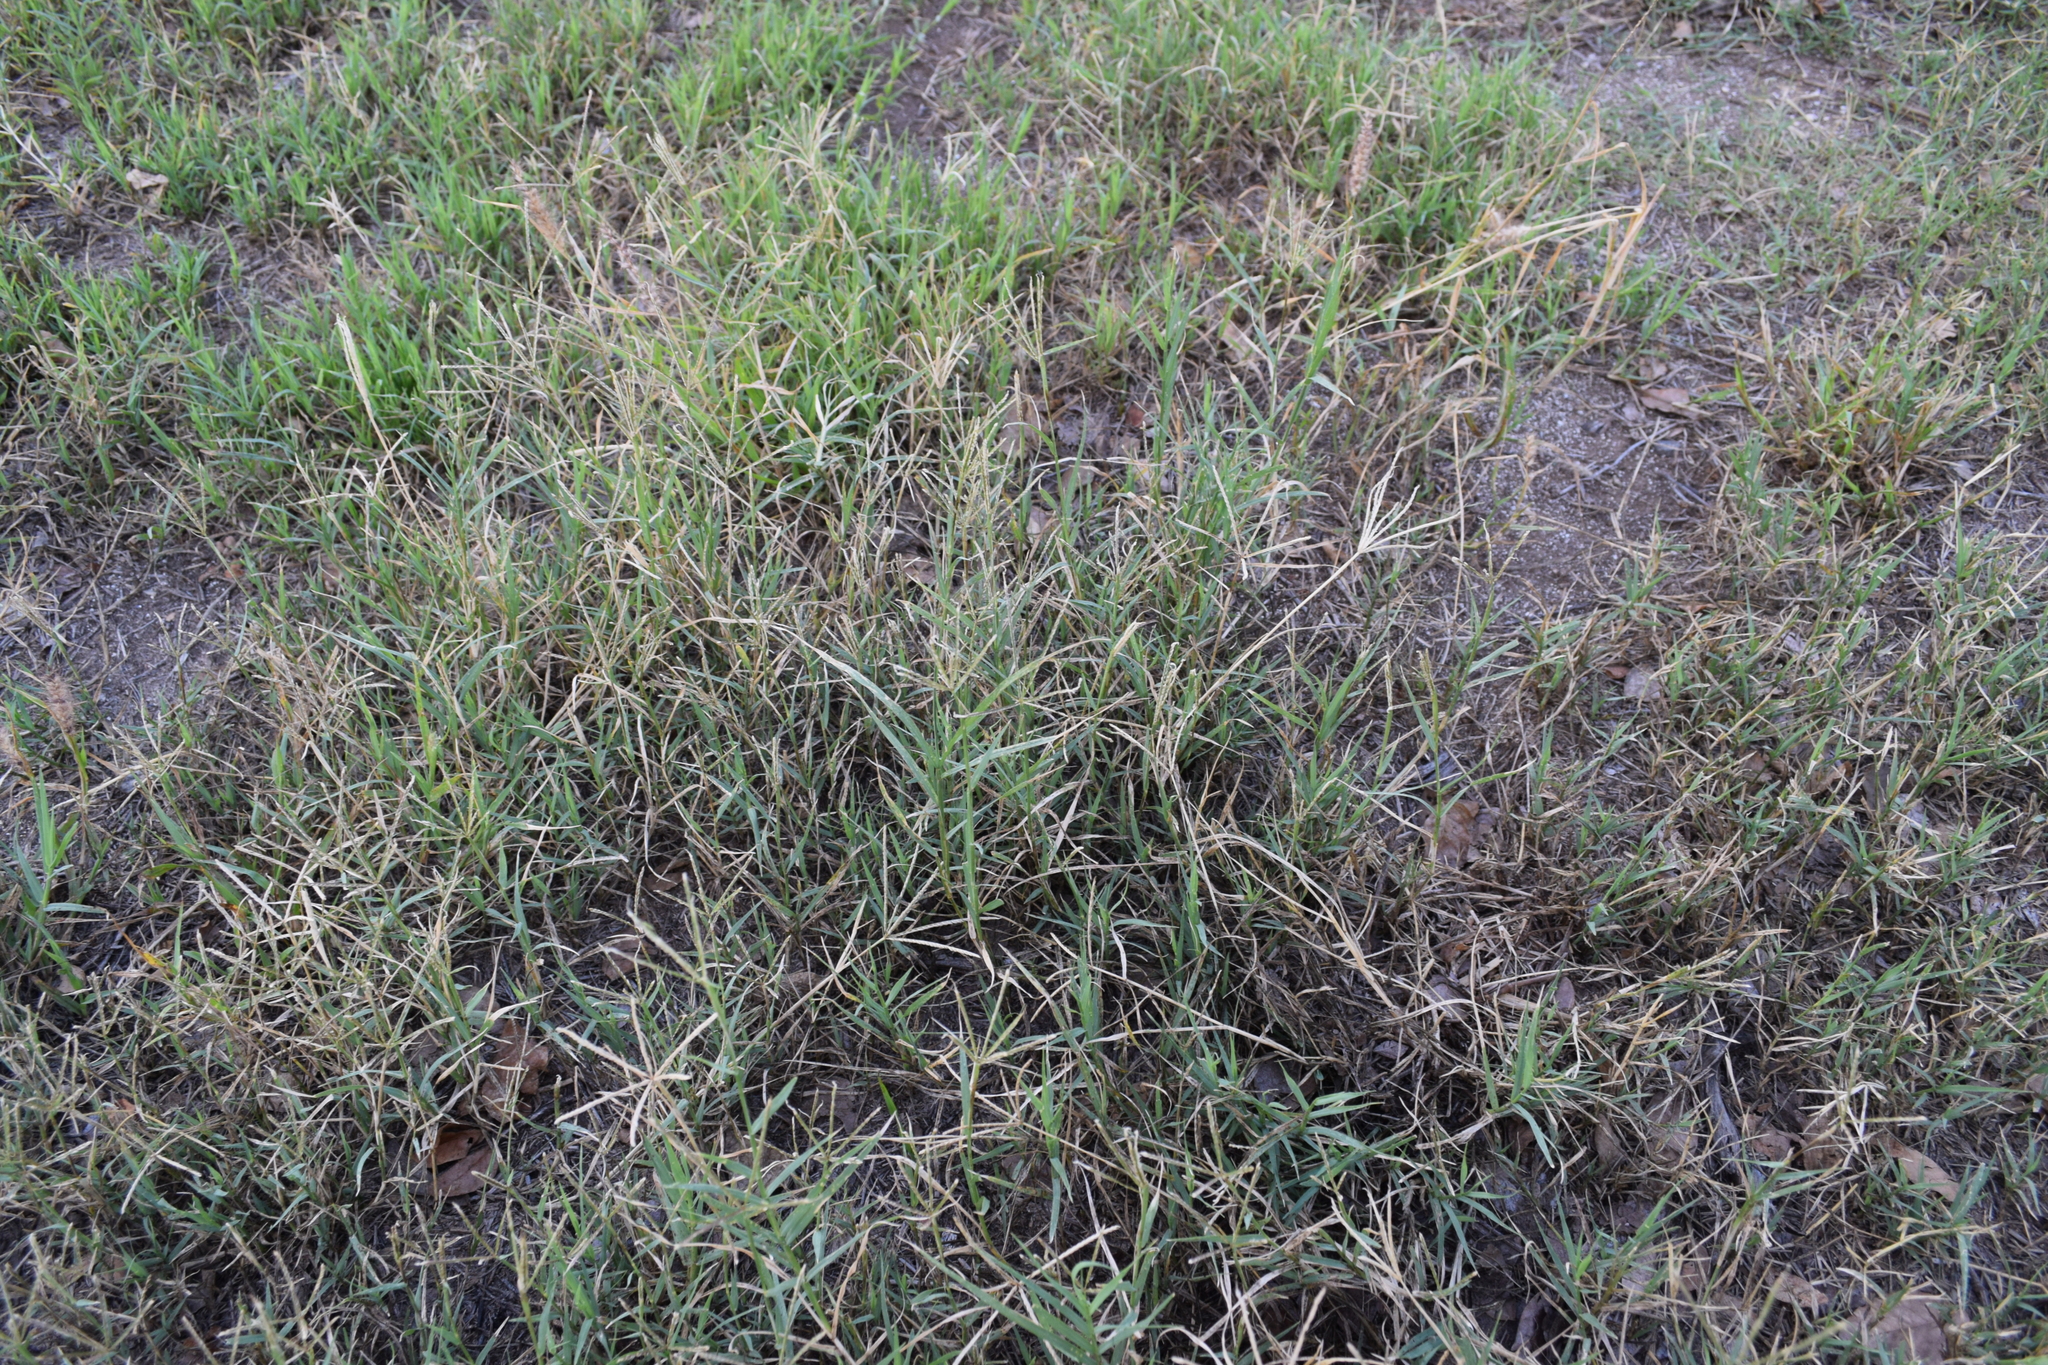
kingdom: Plantae
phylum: Tracheophyta
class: Liliopsida
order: Poales
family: Poaceae
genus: Cynodon
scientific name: Cynodon dactylon
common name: Bermuda grass
